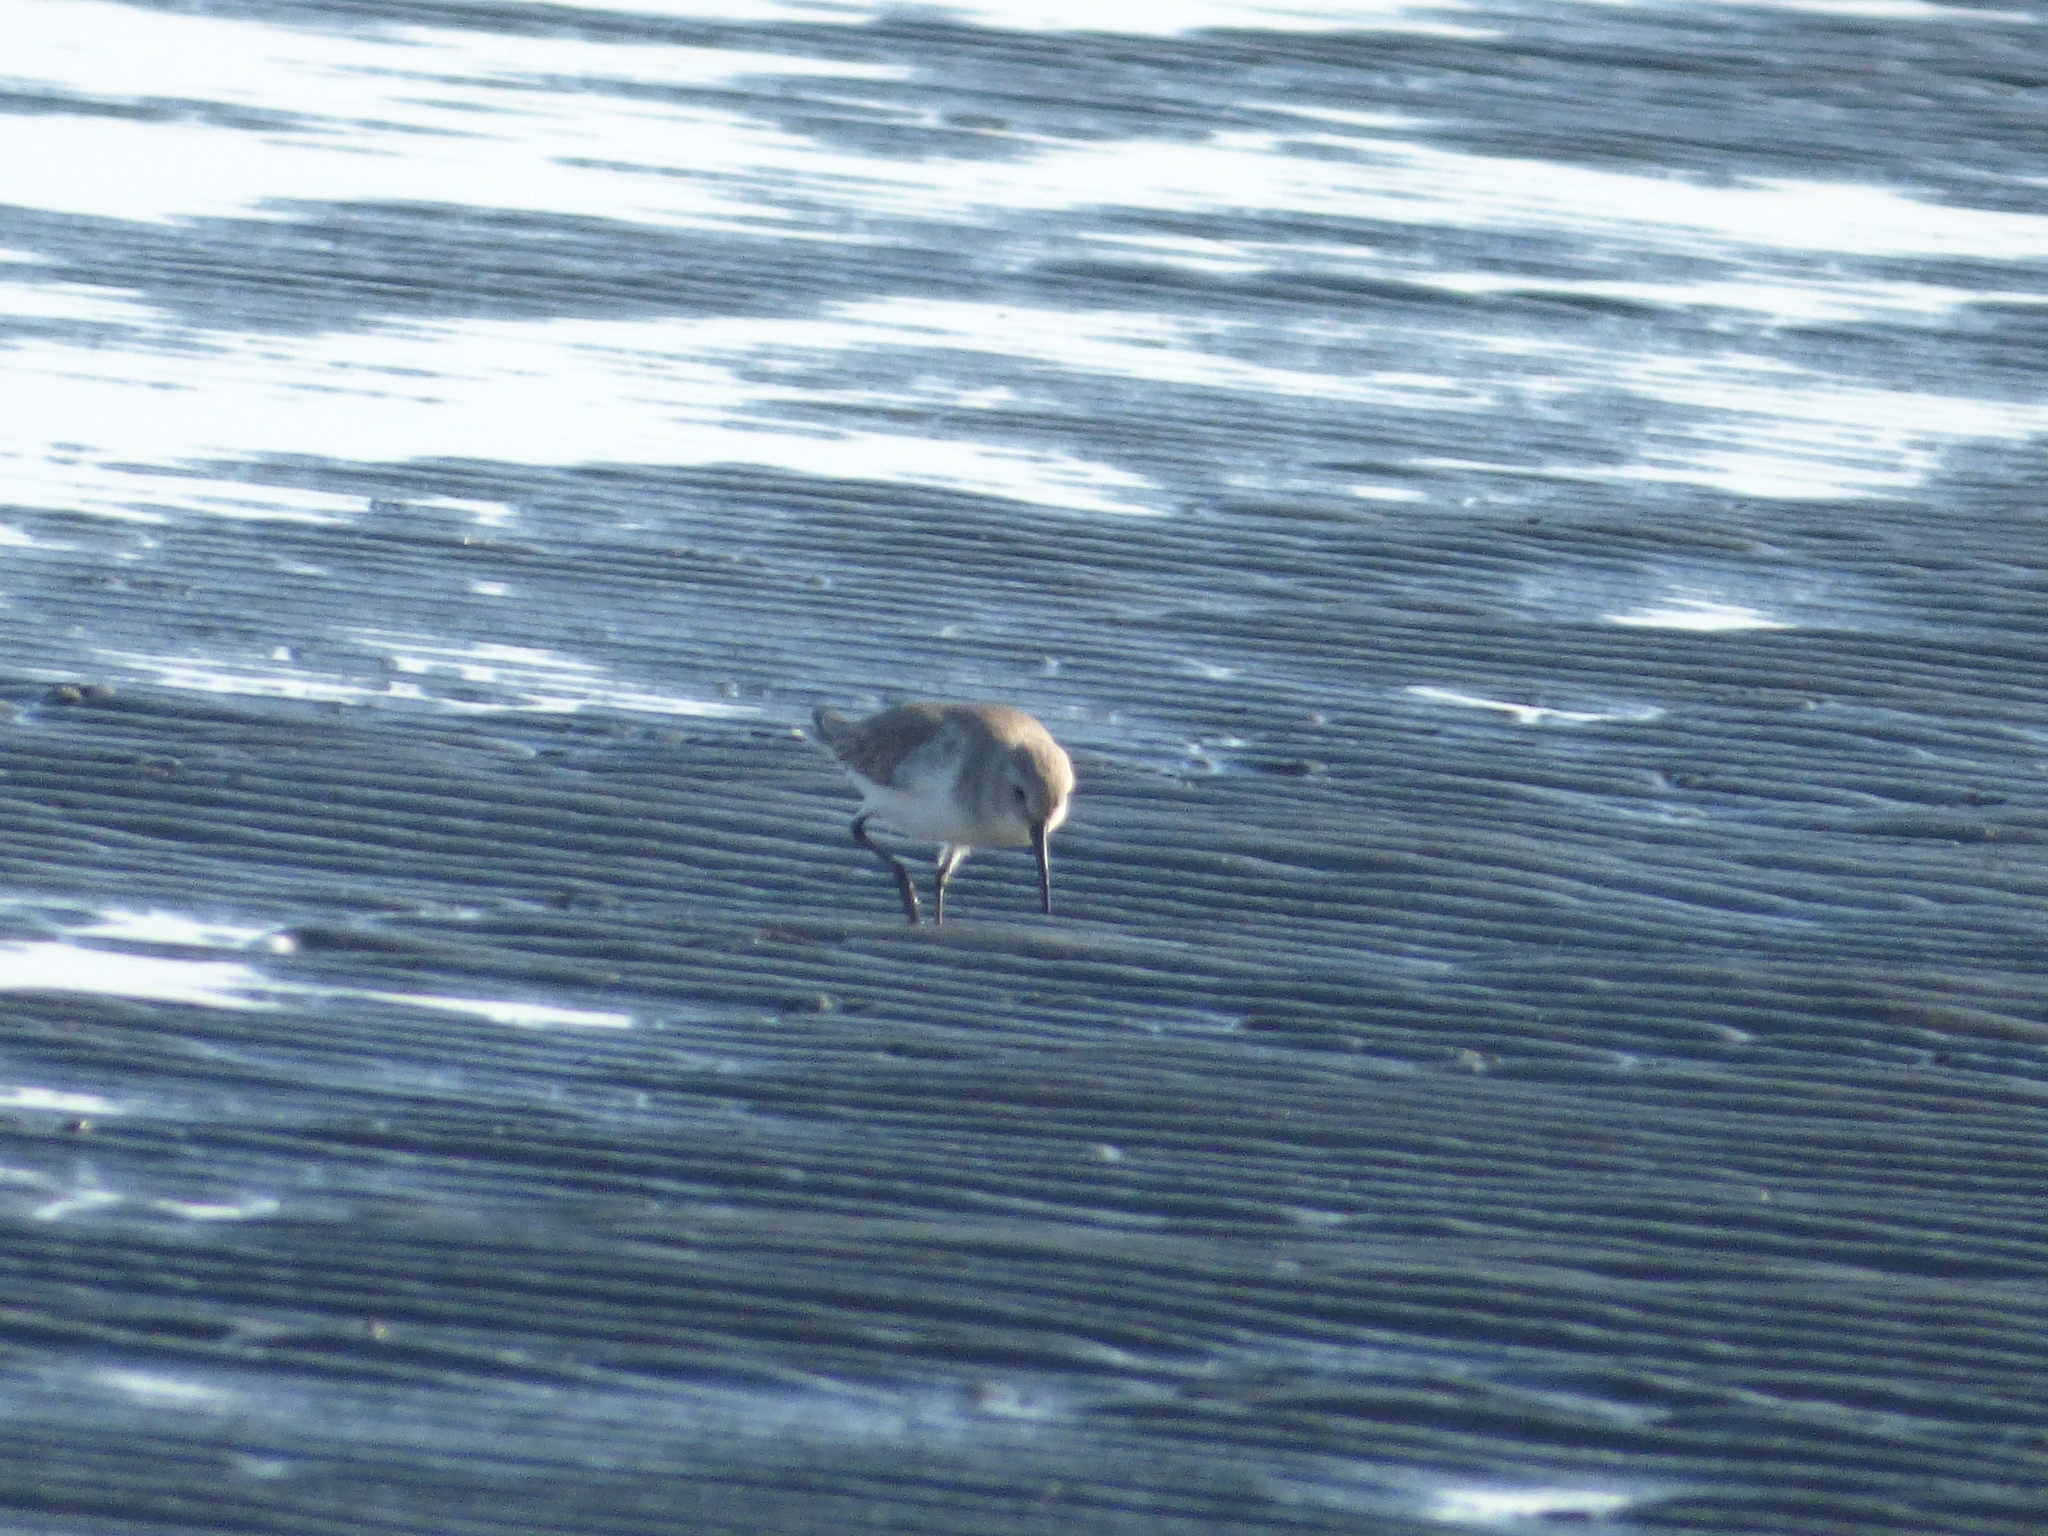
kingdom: Animalia
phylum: Chordata
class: Aves
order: Charadriiformes
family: Scolopacidae
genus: Calidris
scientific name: Calidris alpina
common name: Dunlin
